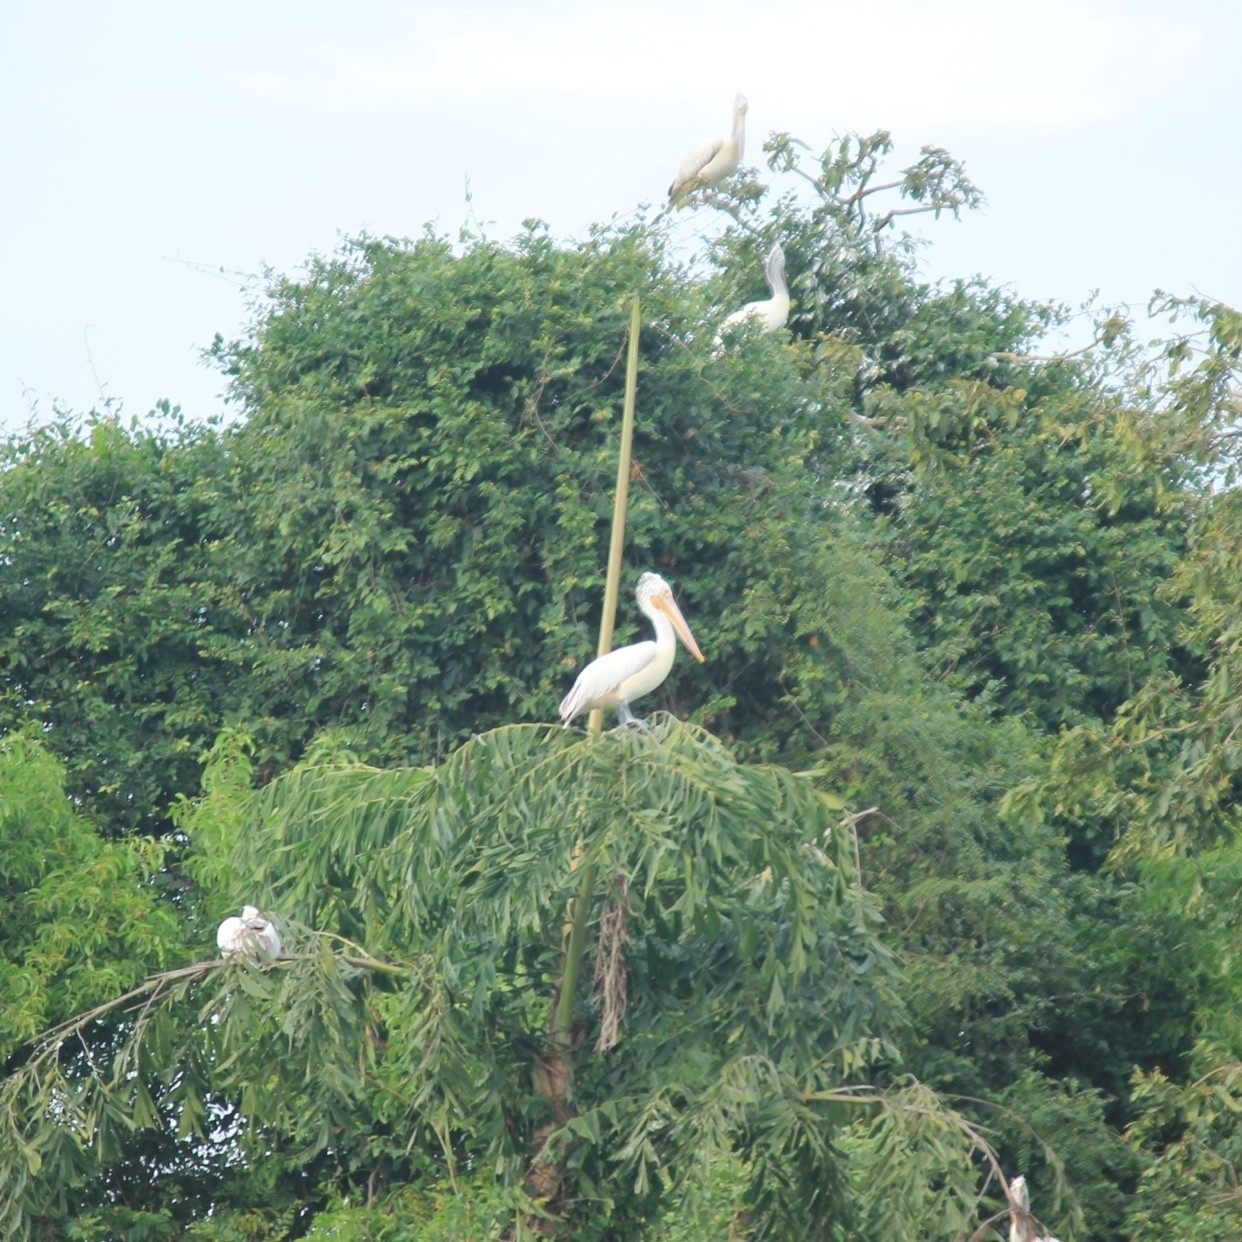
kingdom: Animalia
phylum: Chordata
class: Aves
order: Pelecaniformes
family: Pelecanidae
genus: Pelecanus
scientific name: Pelecanus crispus
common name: Dalmatian pelican
